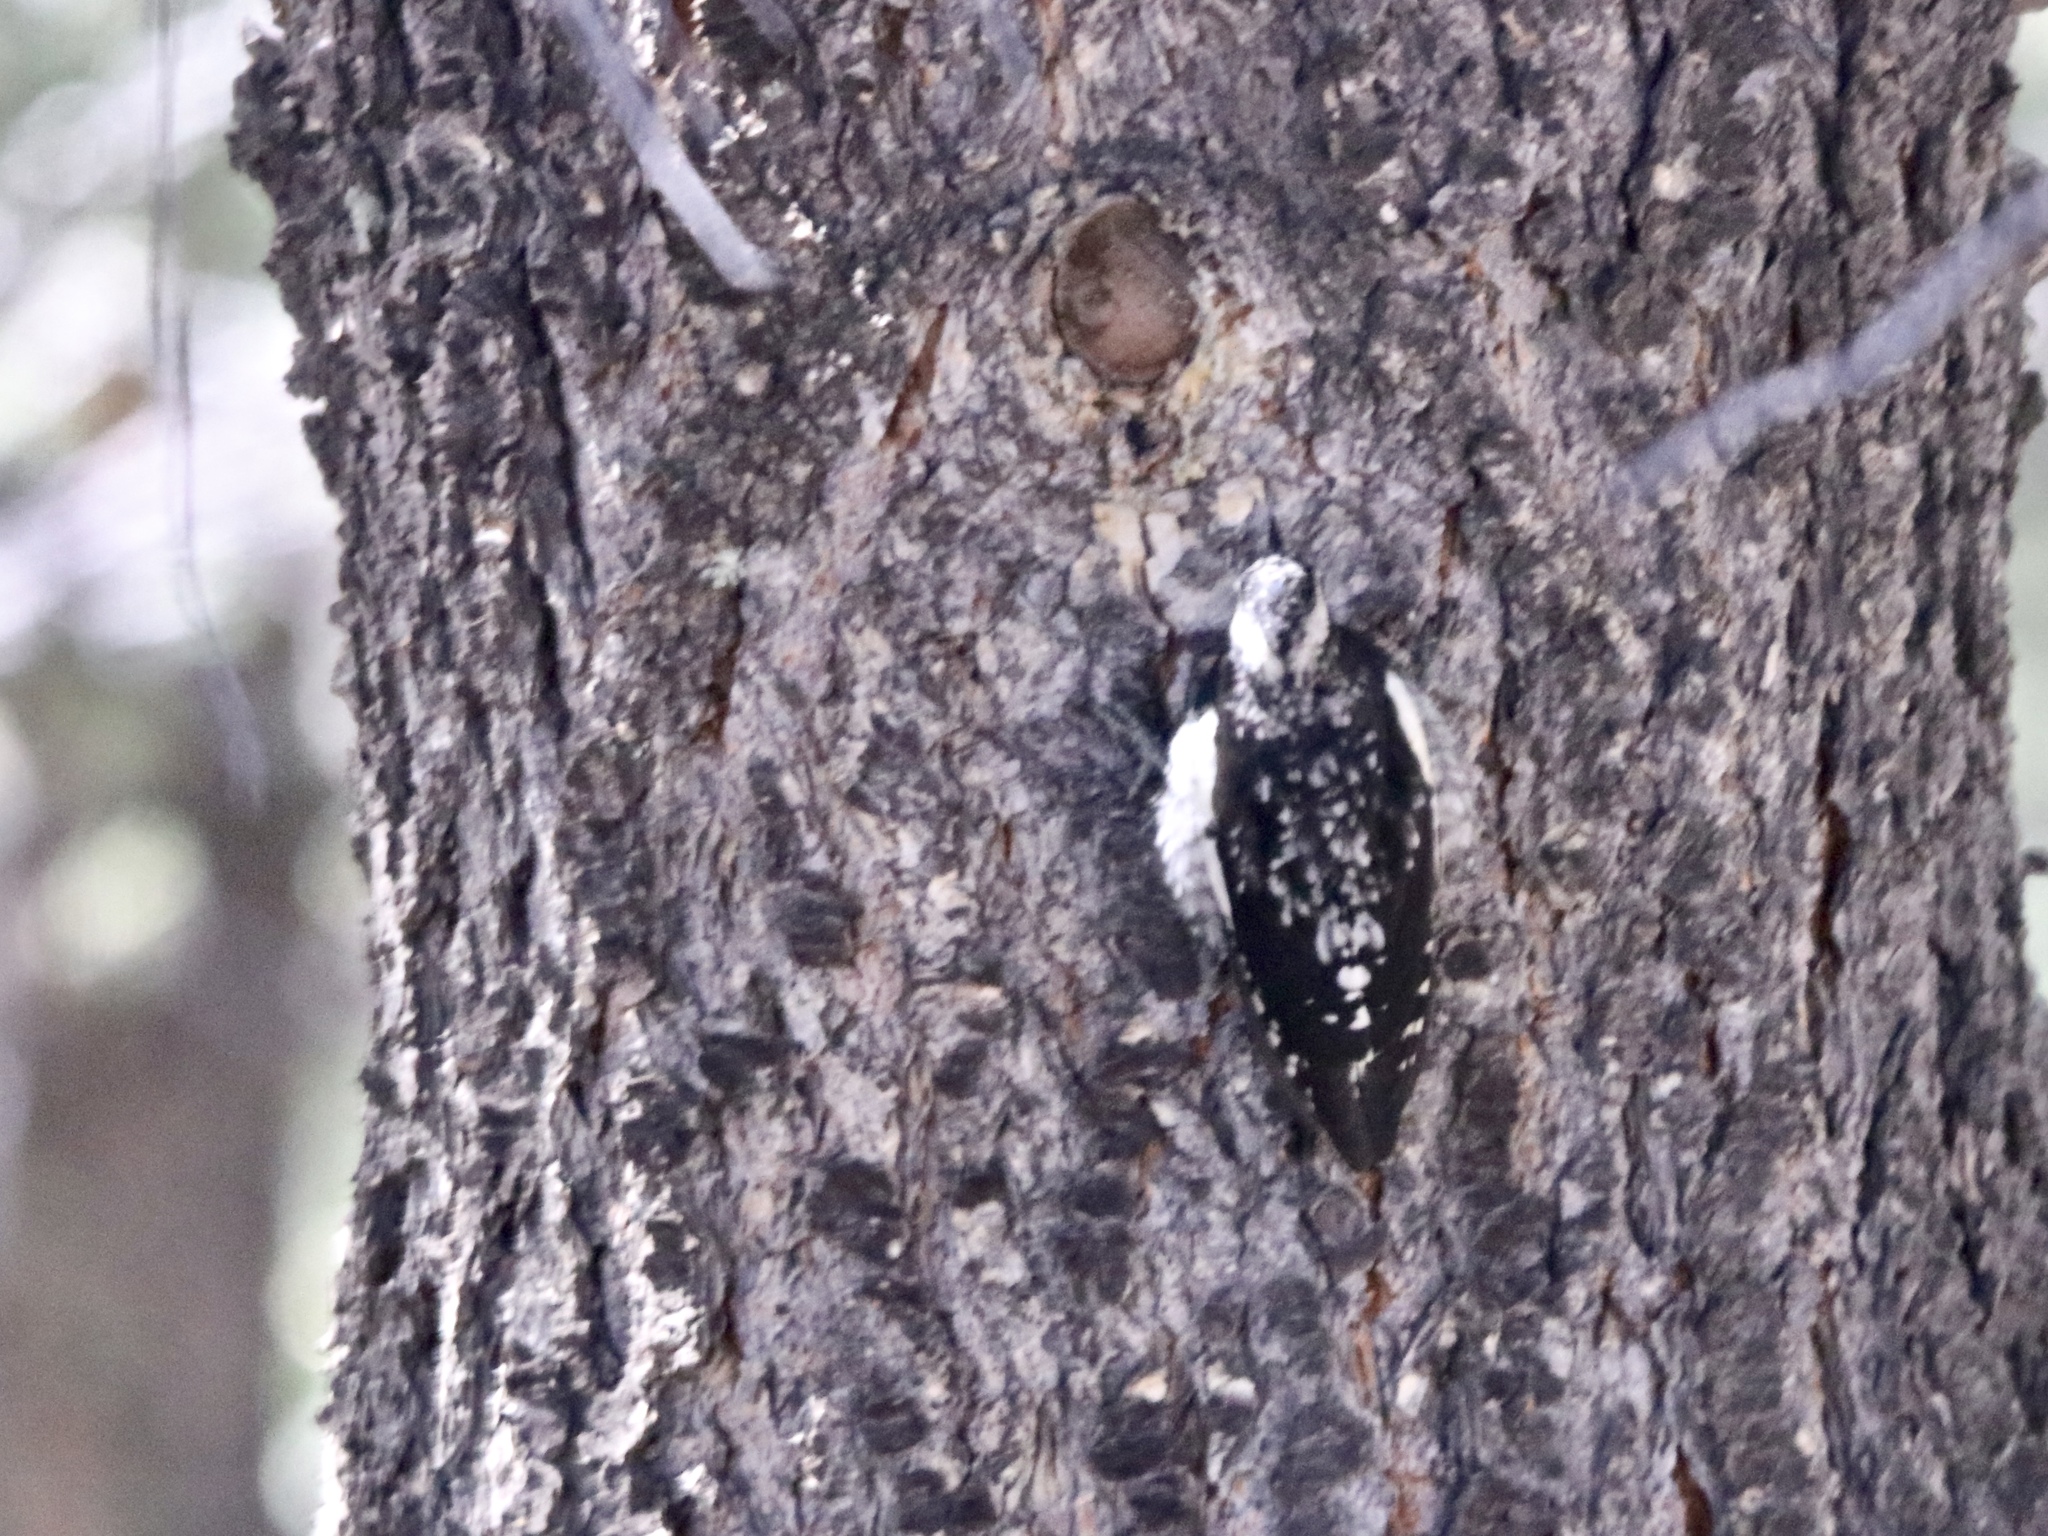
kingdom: Animalia
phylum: Chordata
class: Aves
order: Piciformes
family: Picidae
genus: Sphyrapicus
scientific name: Sphyrapicus thyroideus
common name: Williamson's sapsucker
